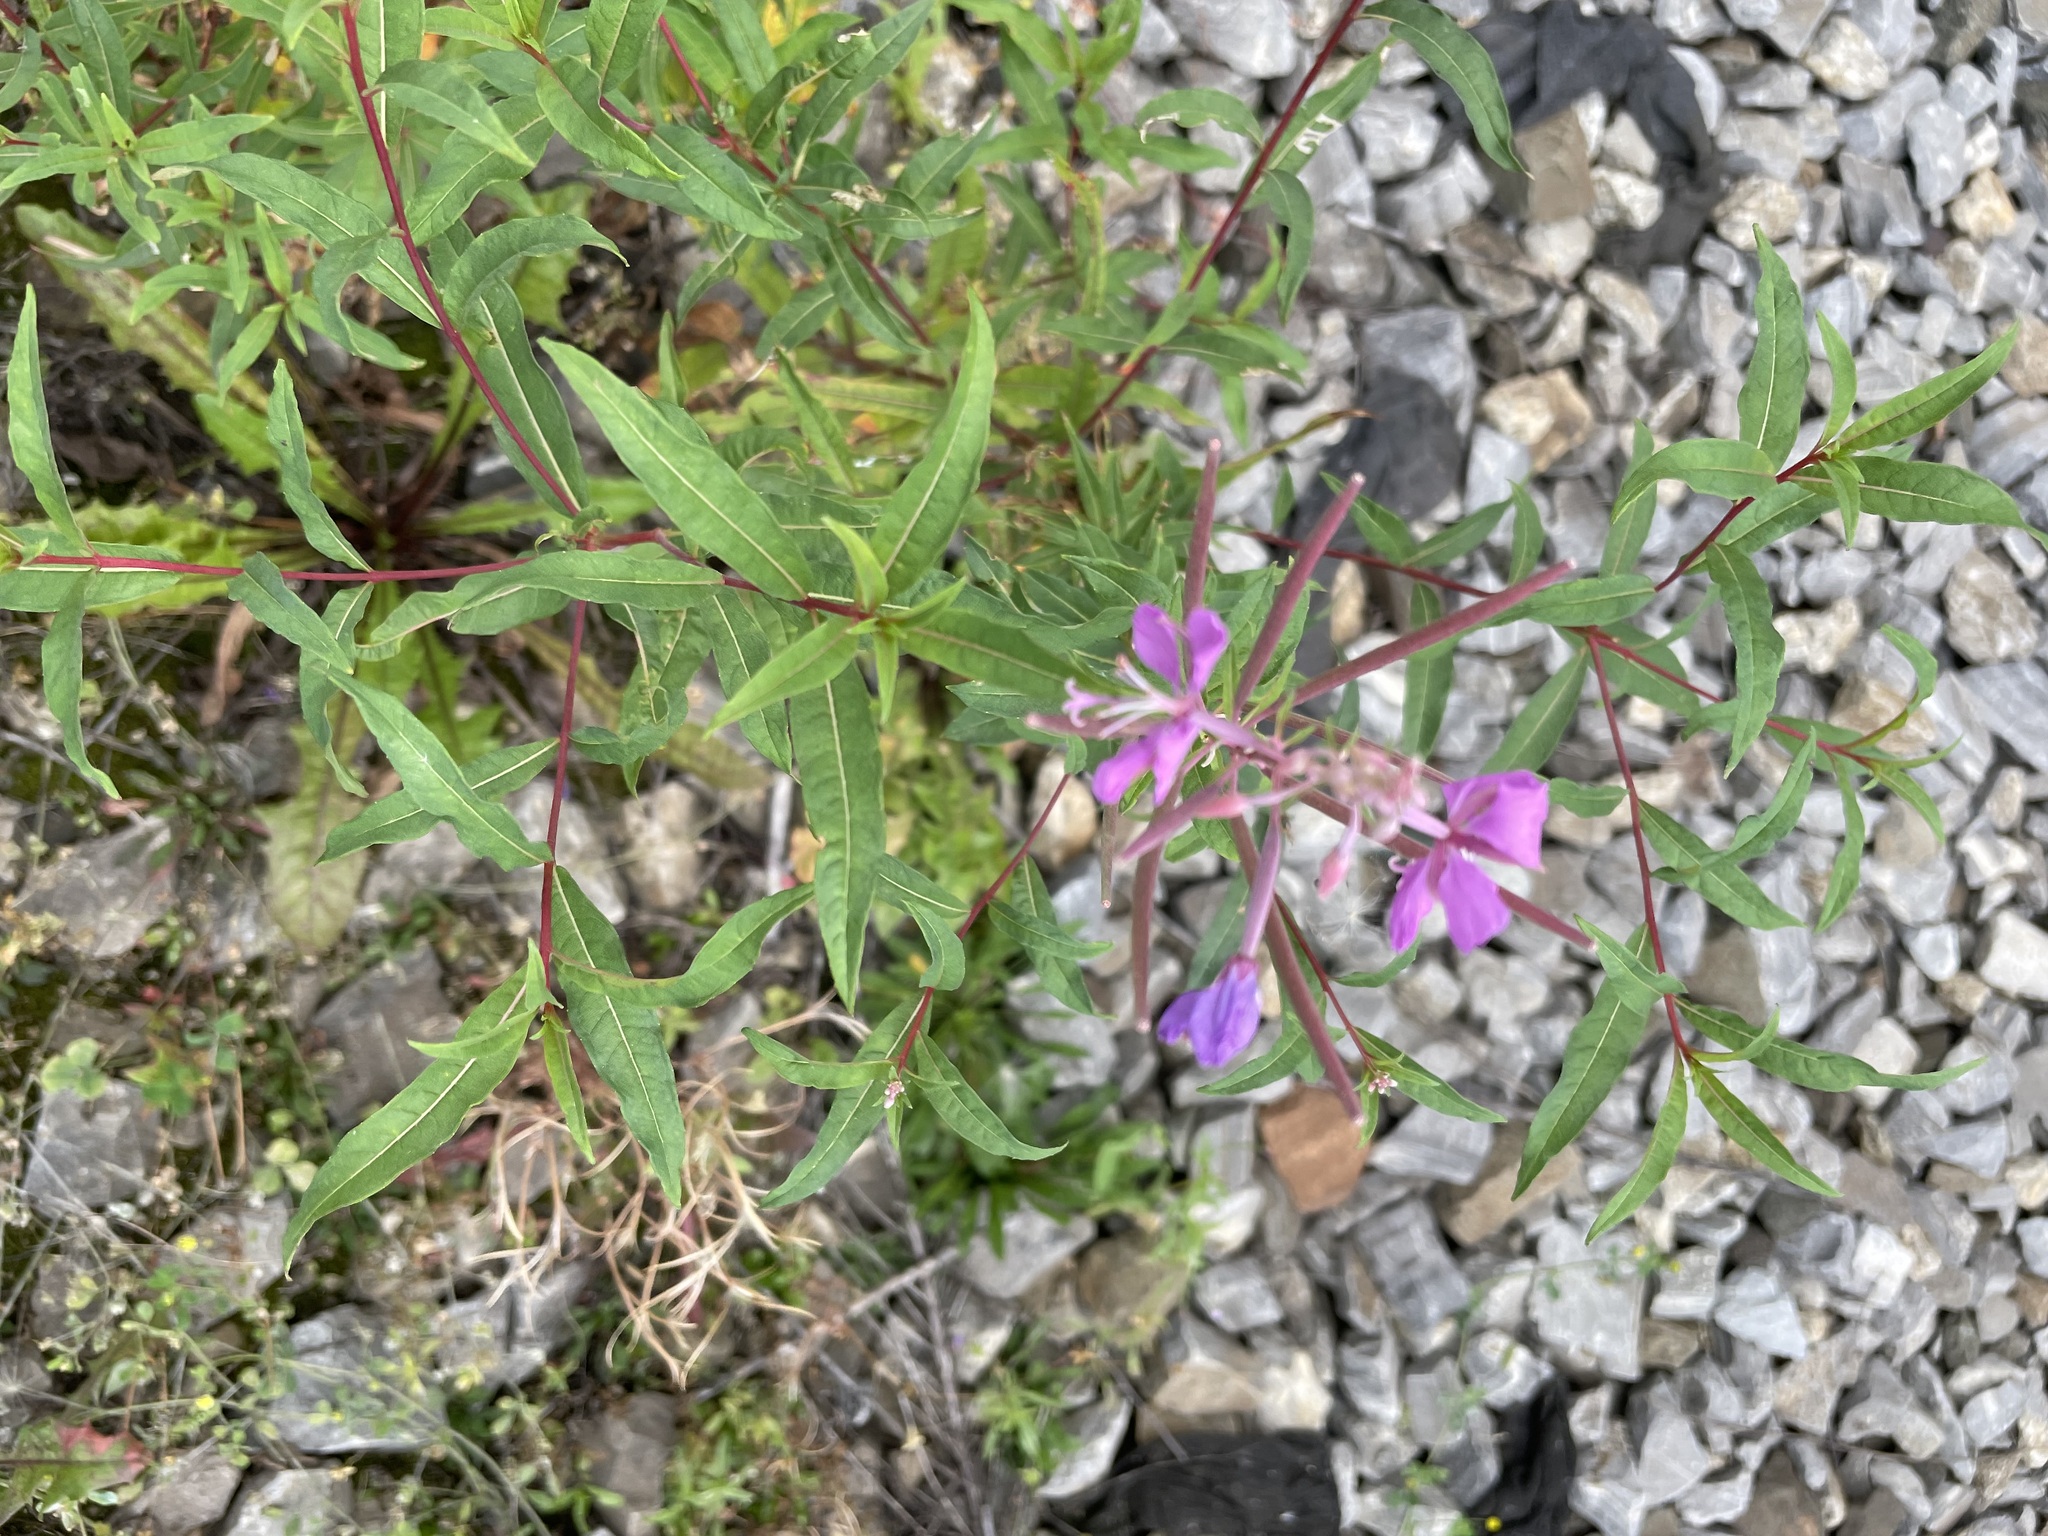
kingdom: Plantae
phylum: Tracheophyta
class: Magnoliopsida
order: Myrtales
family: Onagraceae
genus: Chamaenerion
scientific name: Chamaenerion angustifolium
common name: Fireweed
